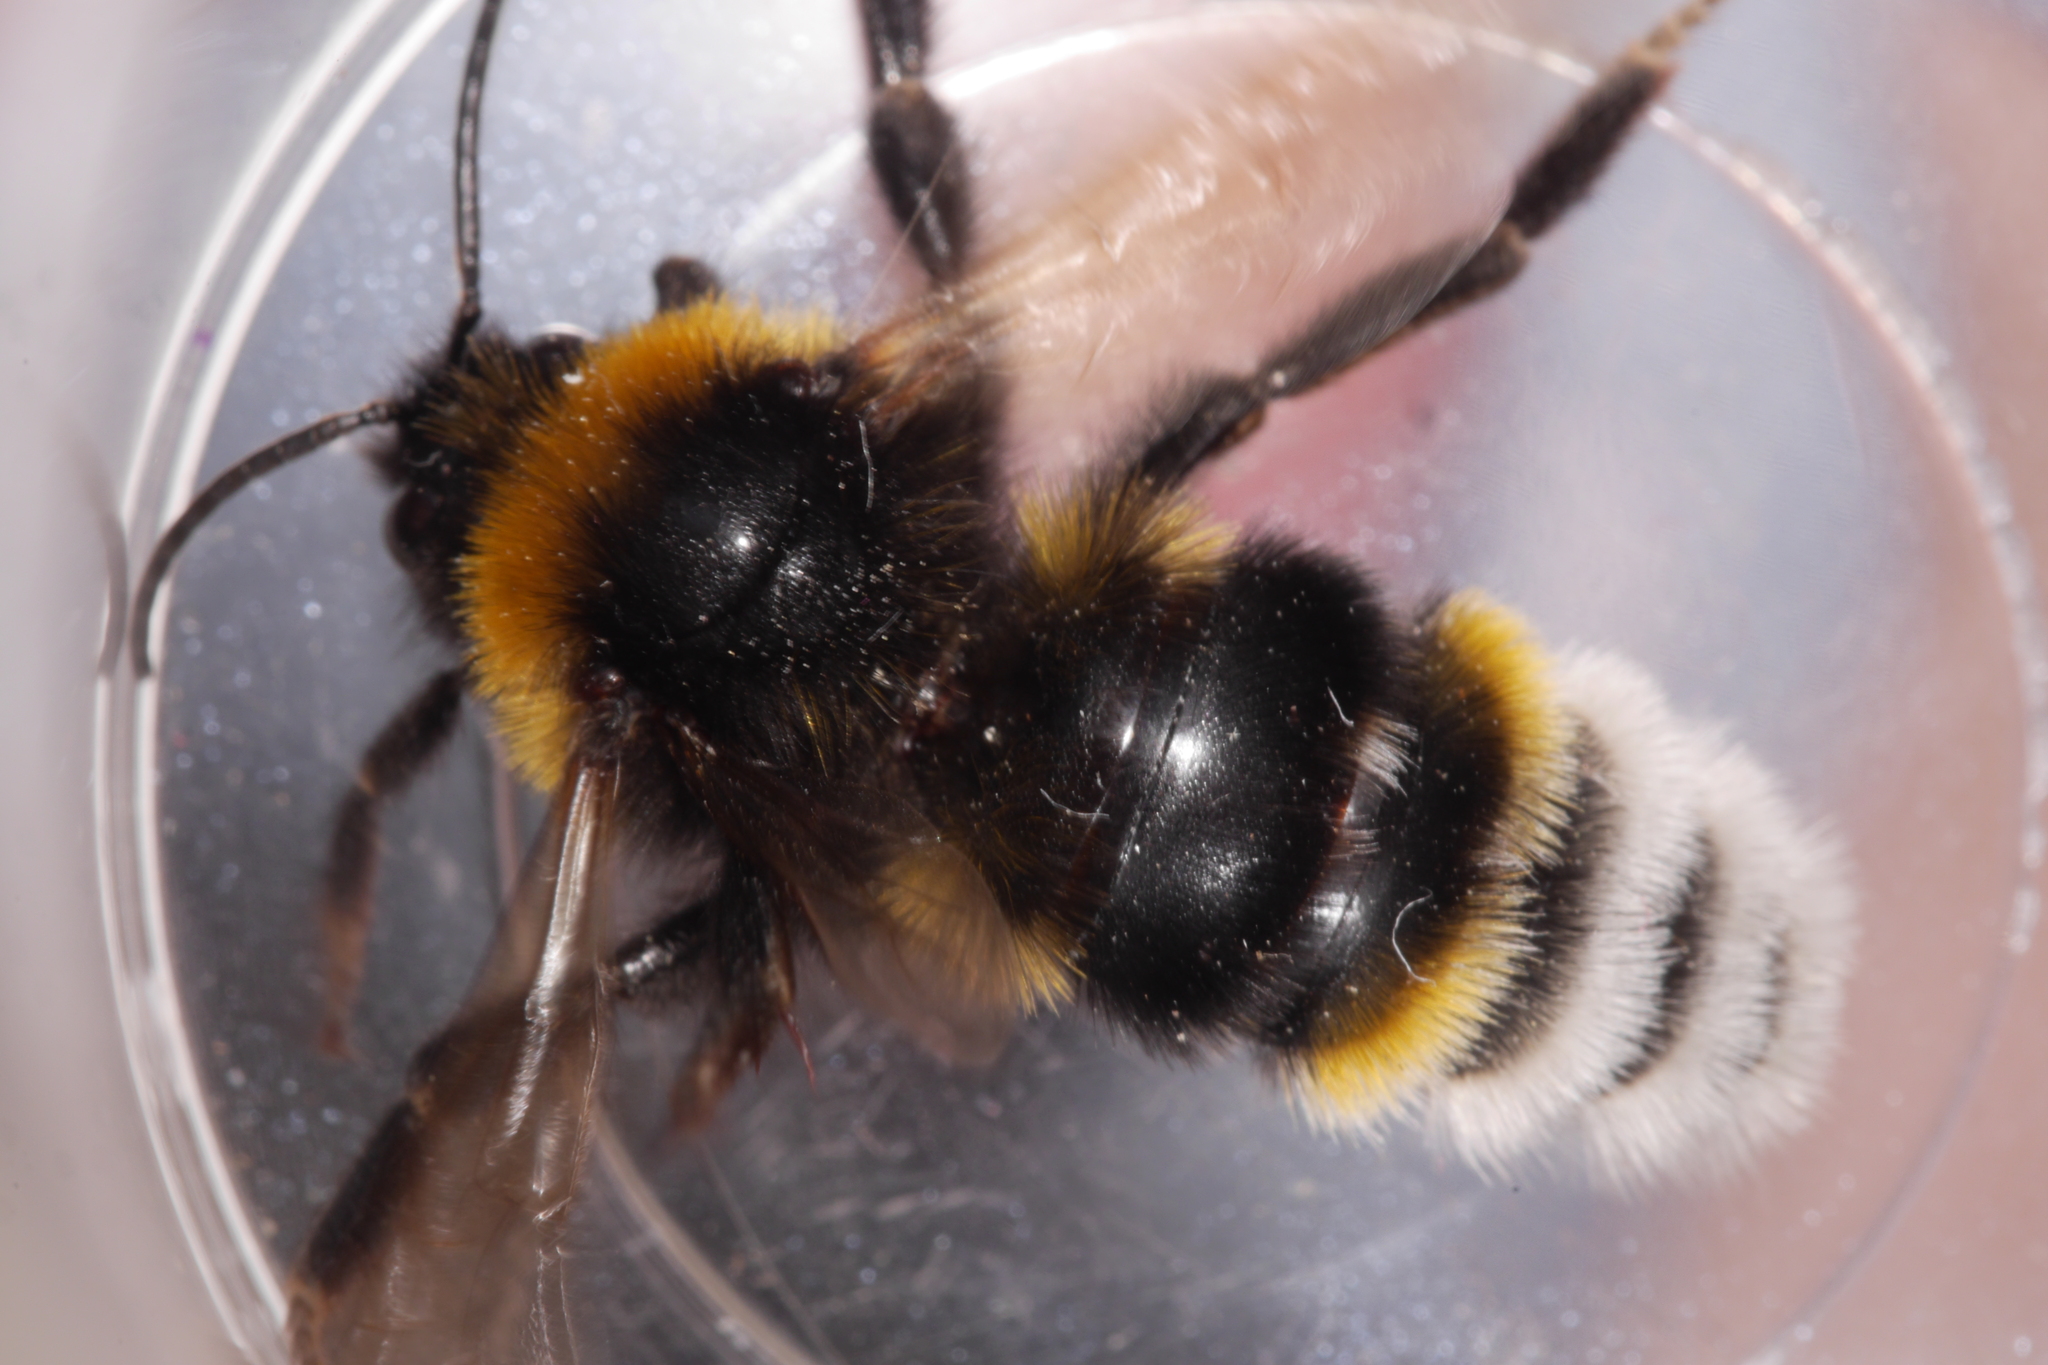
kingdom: Animalia
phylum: Arthropoda
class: Insecta
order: Hymenoptera
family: Apidae
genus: Bombus
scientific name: Bombus vestalis
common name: Vestal cuckoo bee
